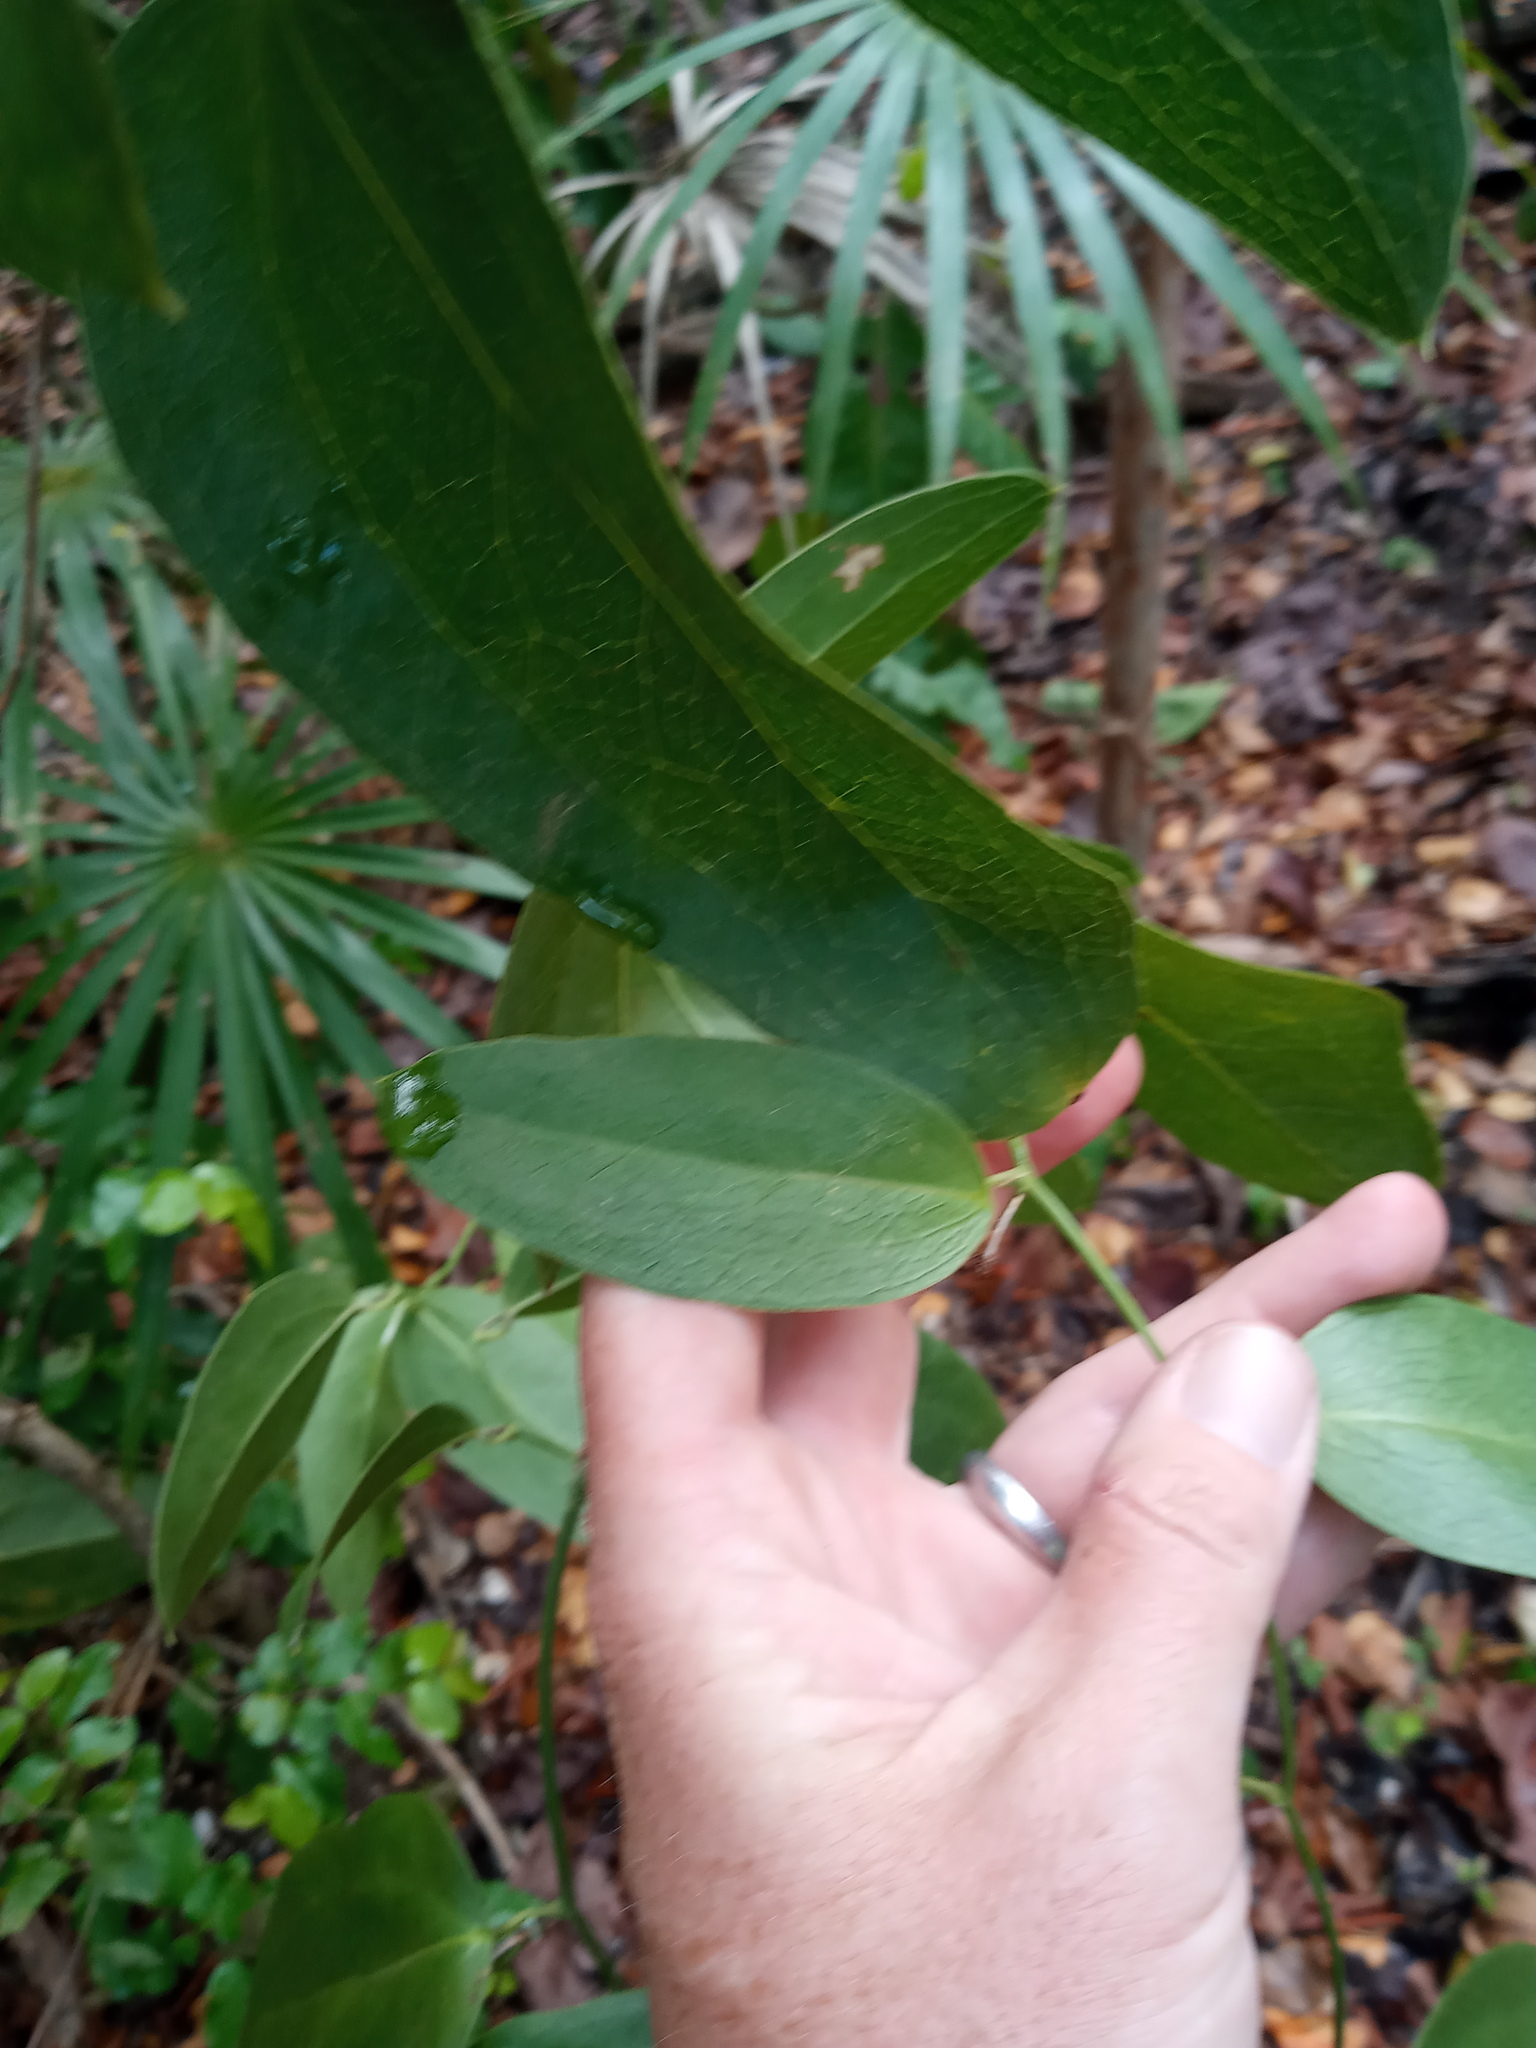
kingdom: Plantae
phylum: Tracheophyta
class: Liliopsida
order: Liliales
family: Smilacaceae
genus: Smilax
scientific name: Smilax coriacea
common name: White withe
